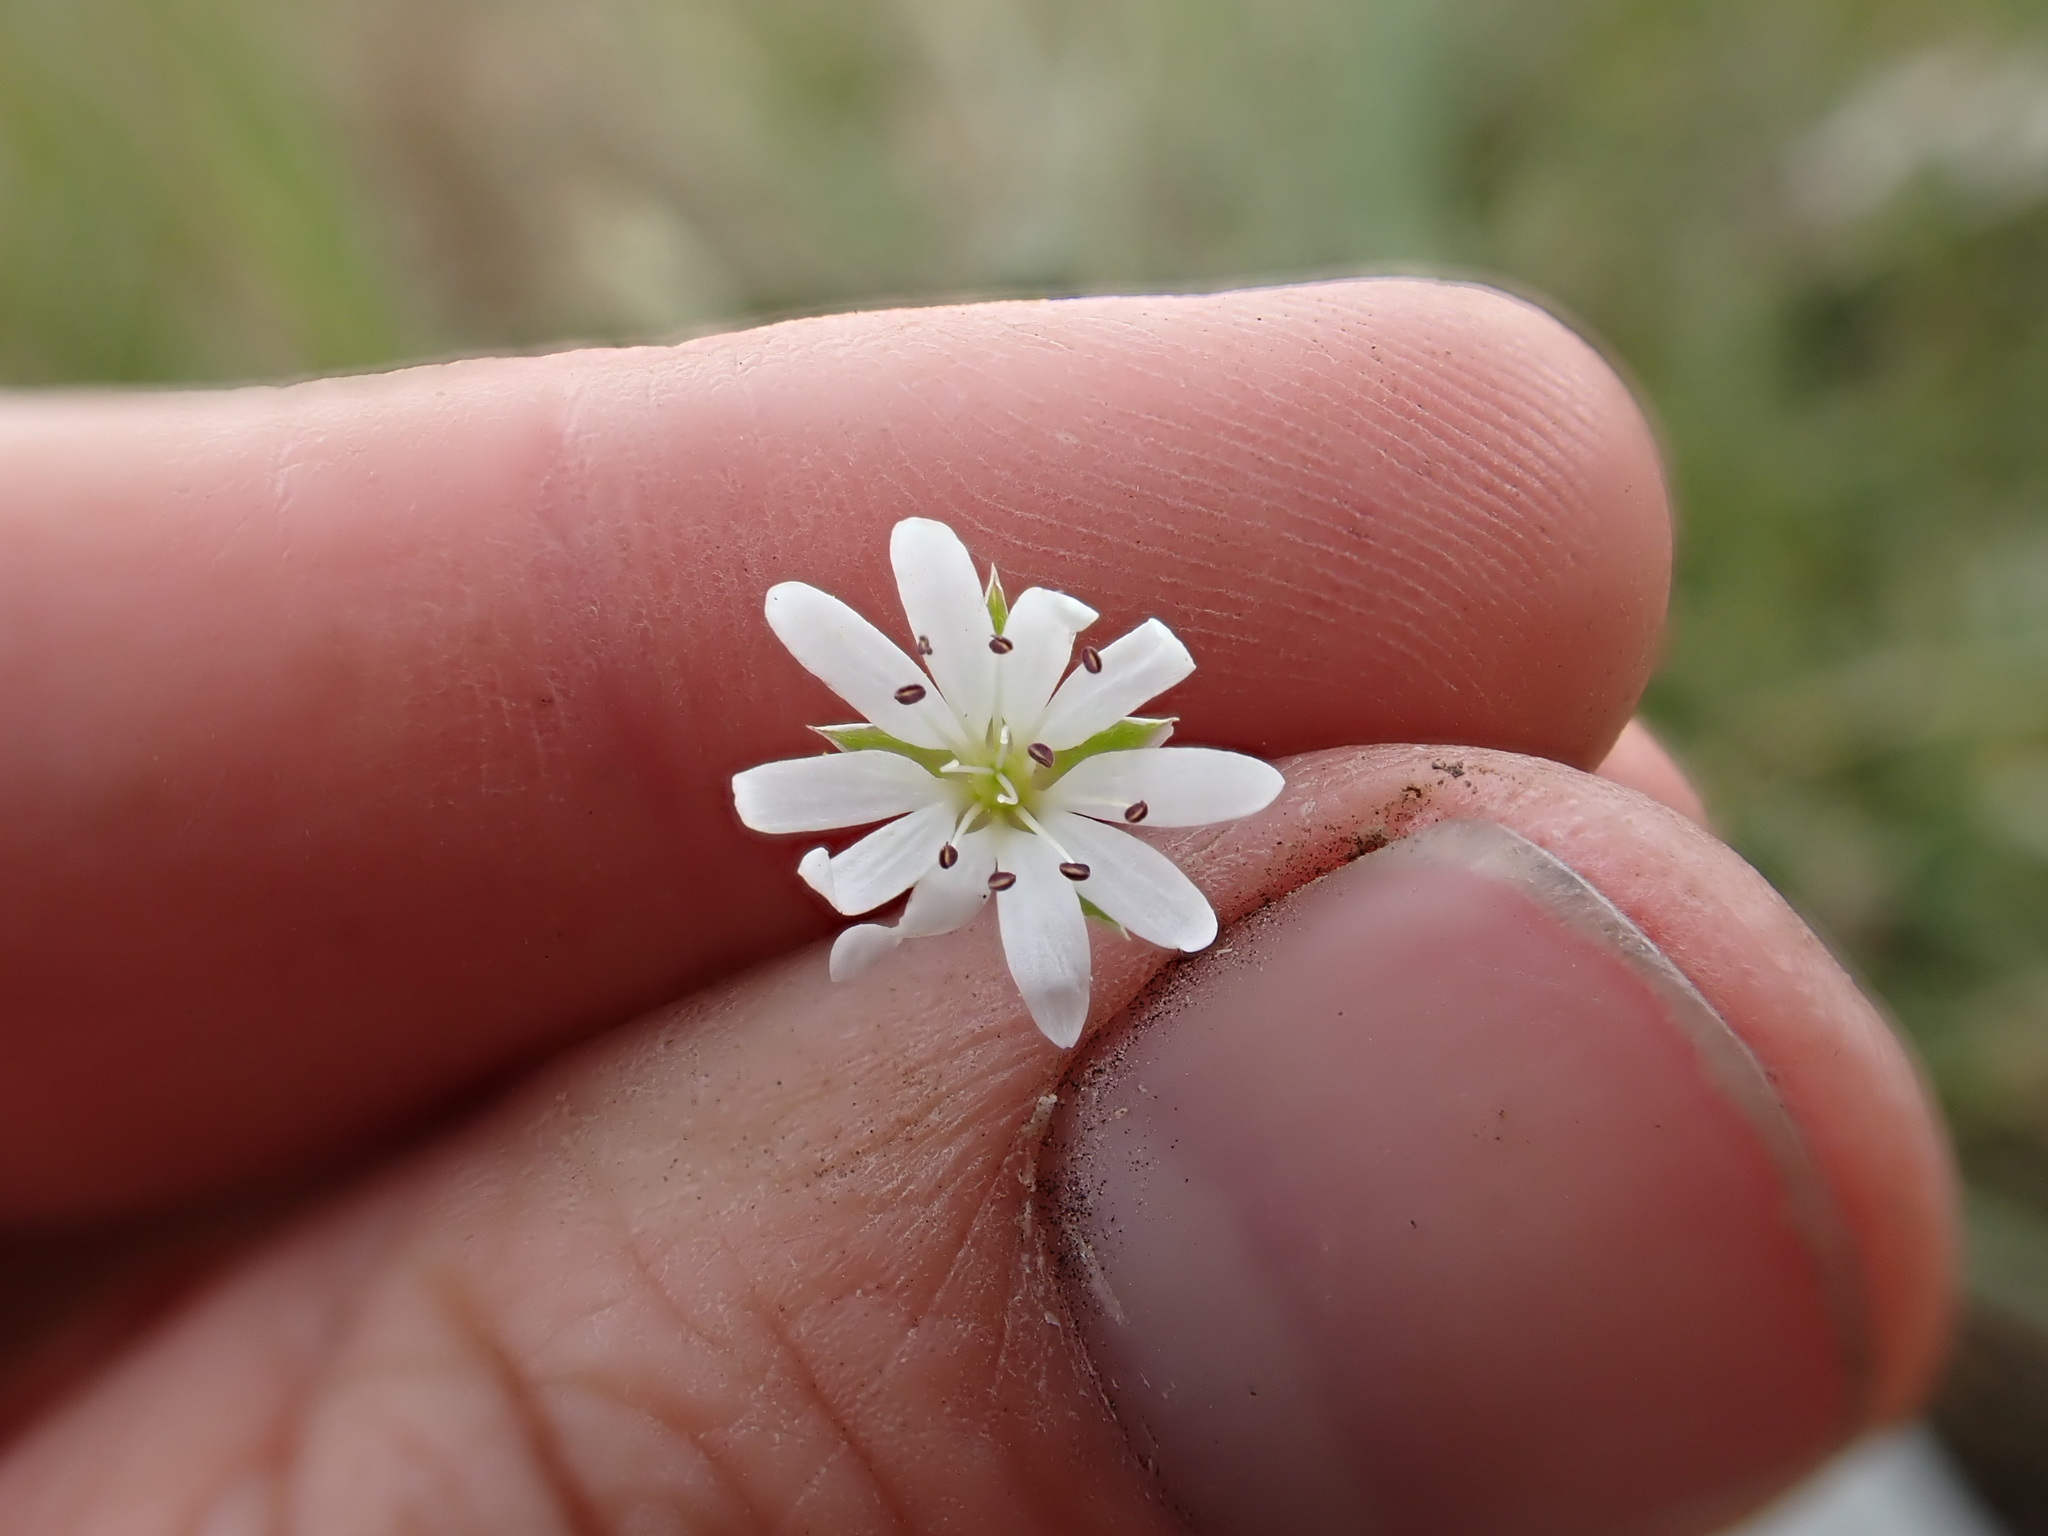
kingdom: Plantae
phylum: Tracheophyta
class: Magnoliopsida
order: Caryophyllales
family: Caryophyllaceae
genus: Stellaria
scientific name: Stellaria longipes
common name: Goldie's starwort
